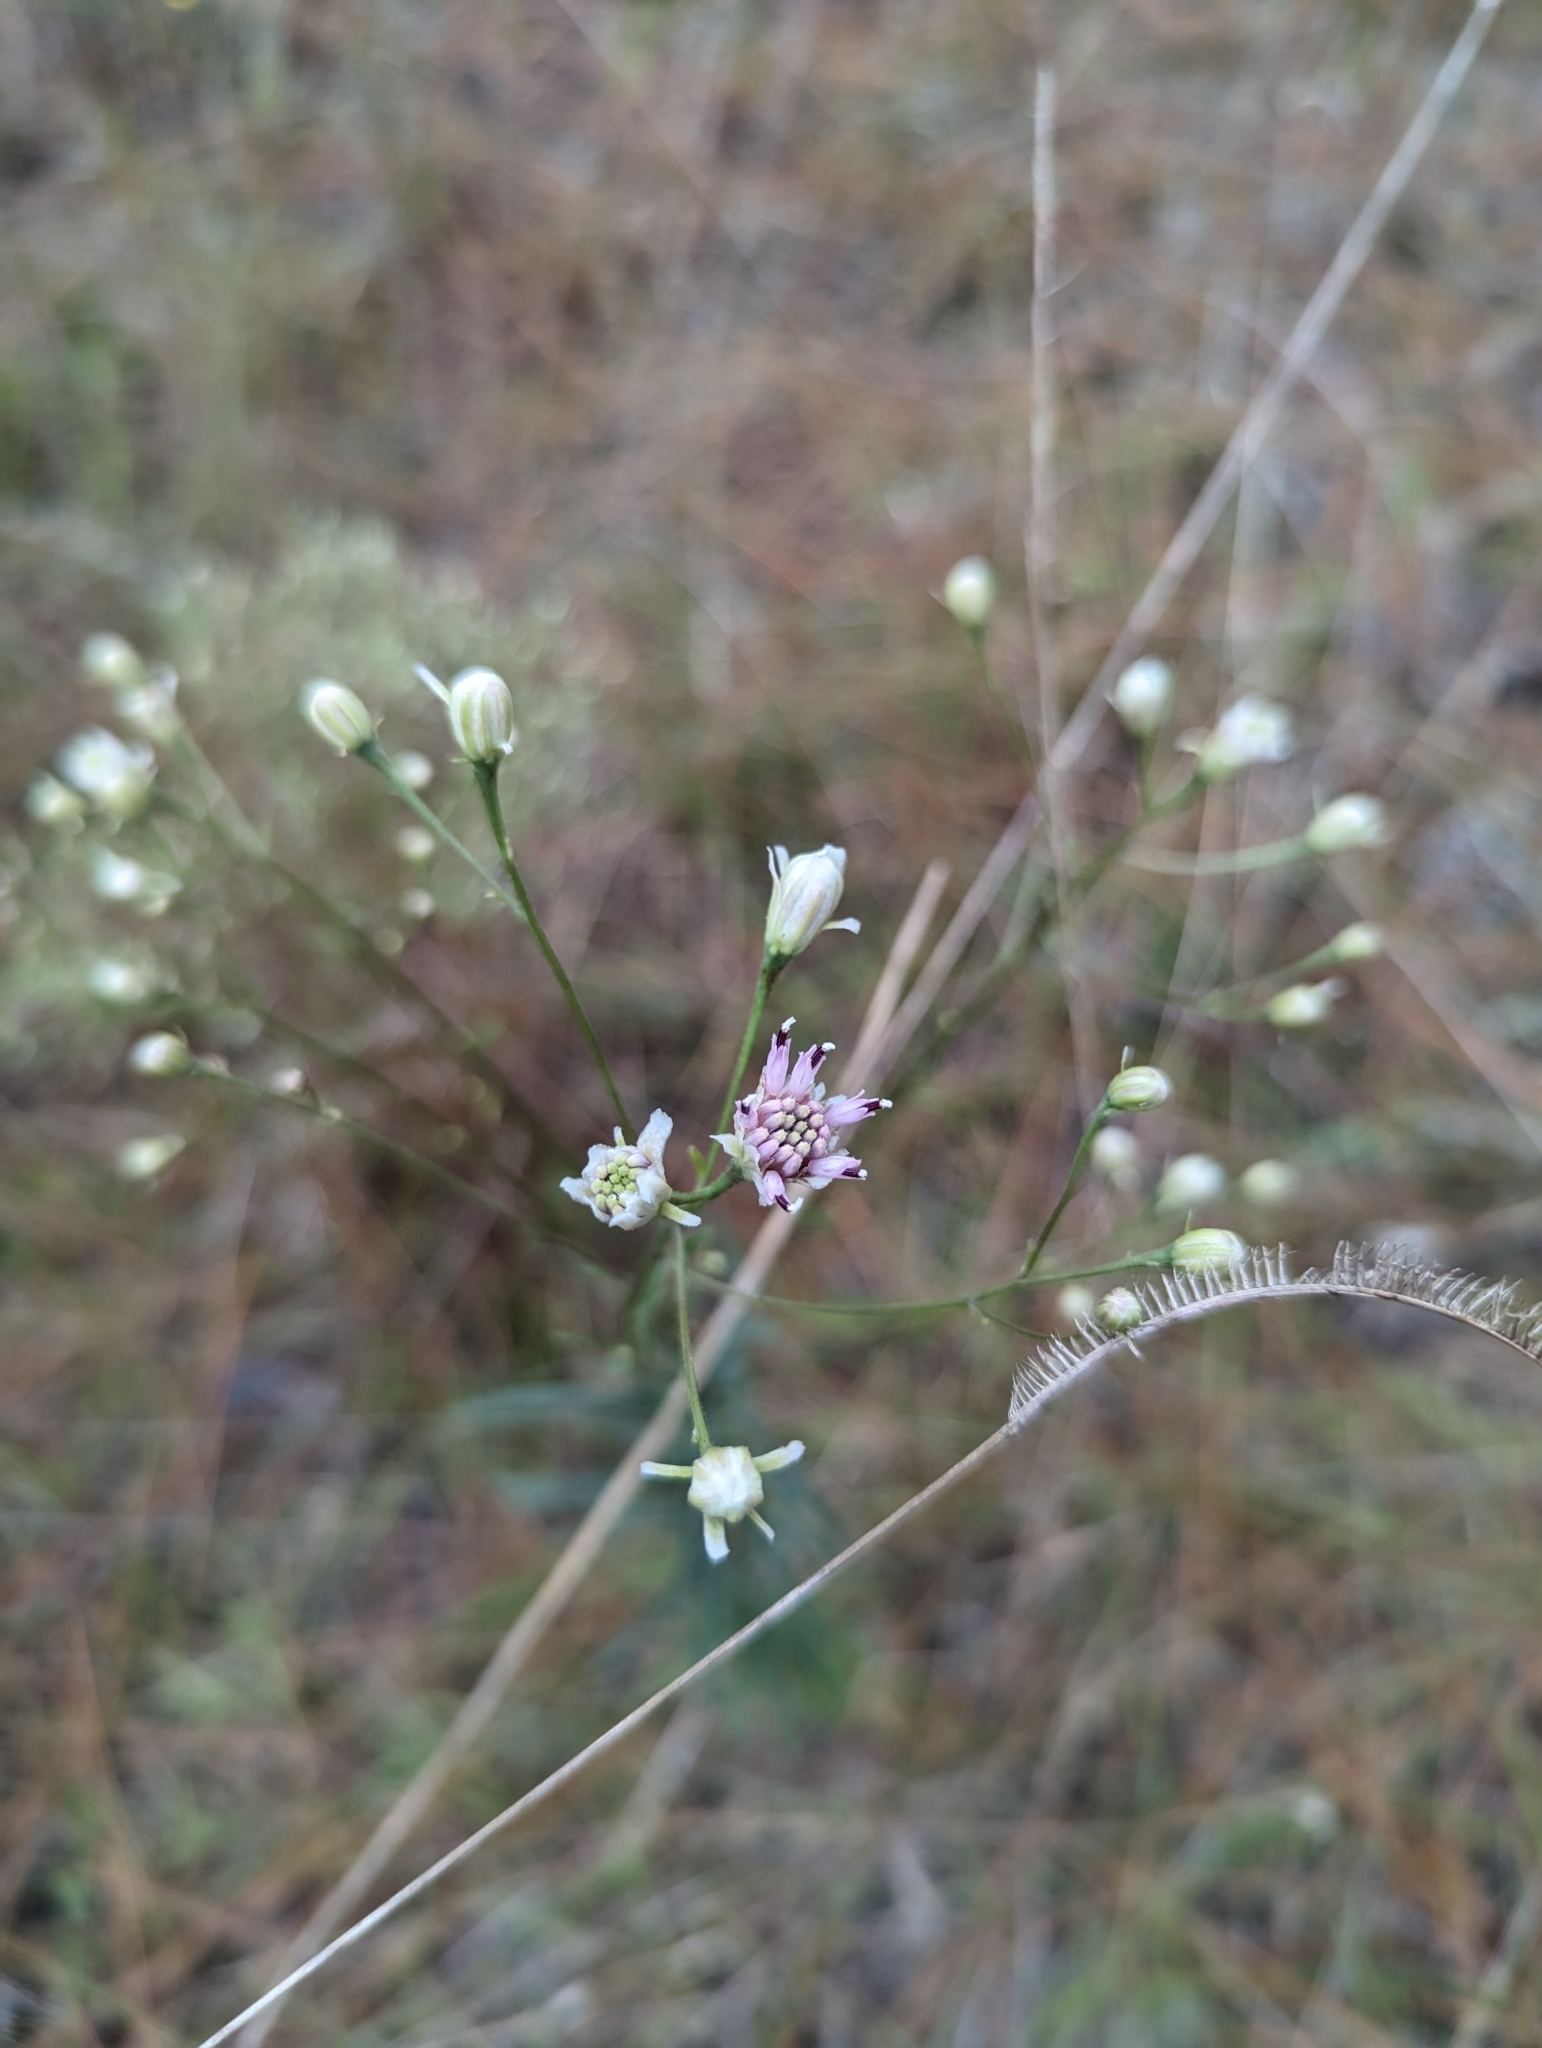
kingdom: Plantae
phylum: Tracheophyta
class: Magnoliopsida
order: Asterales
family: Asteraceae
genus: Palafoxia
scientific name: Palafoxia integrifolia
